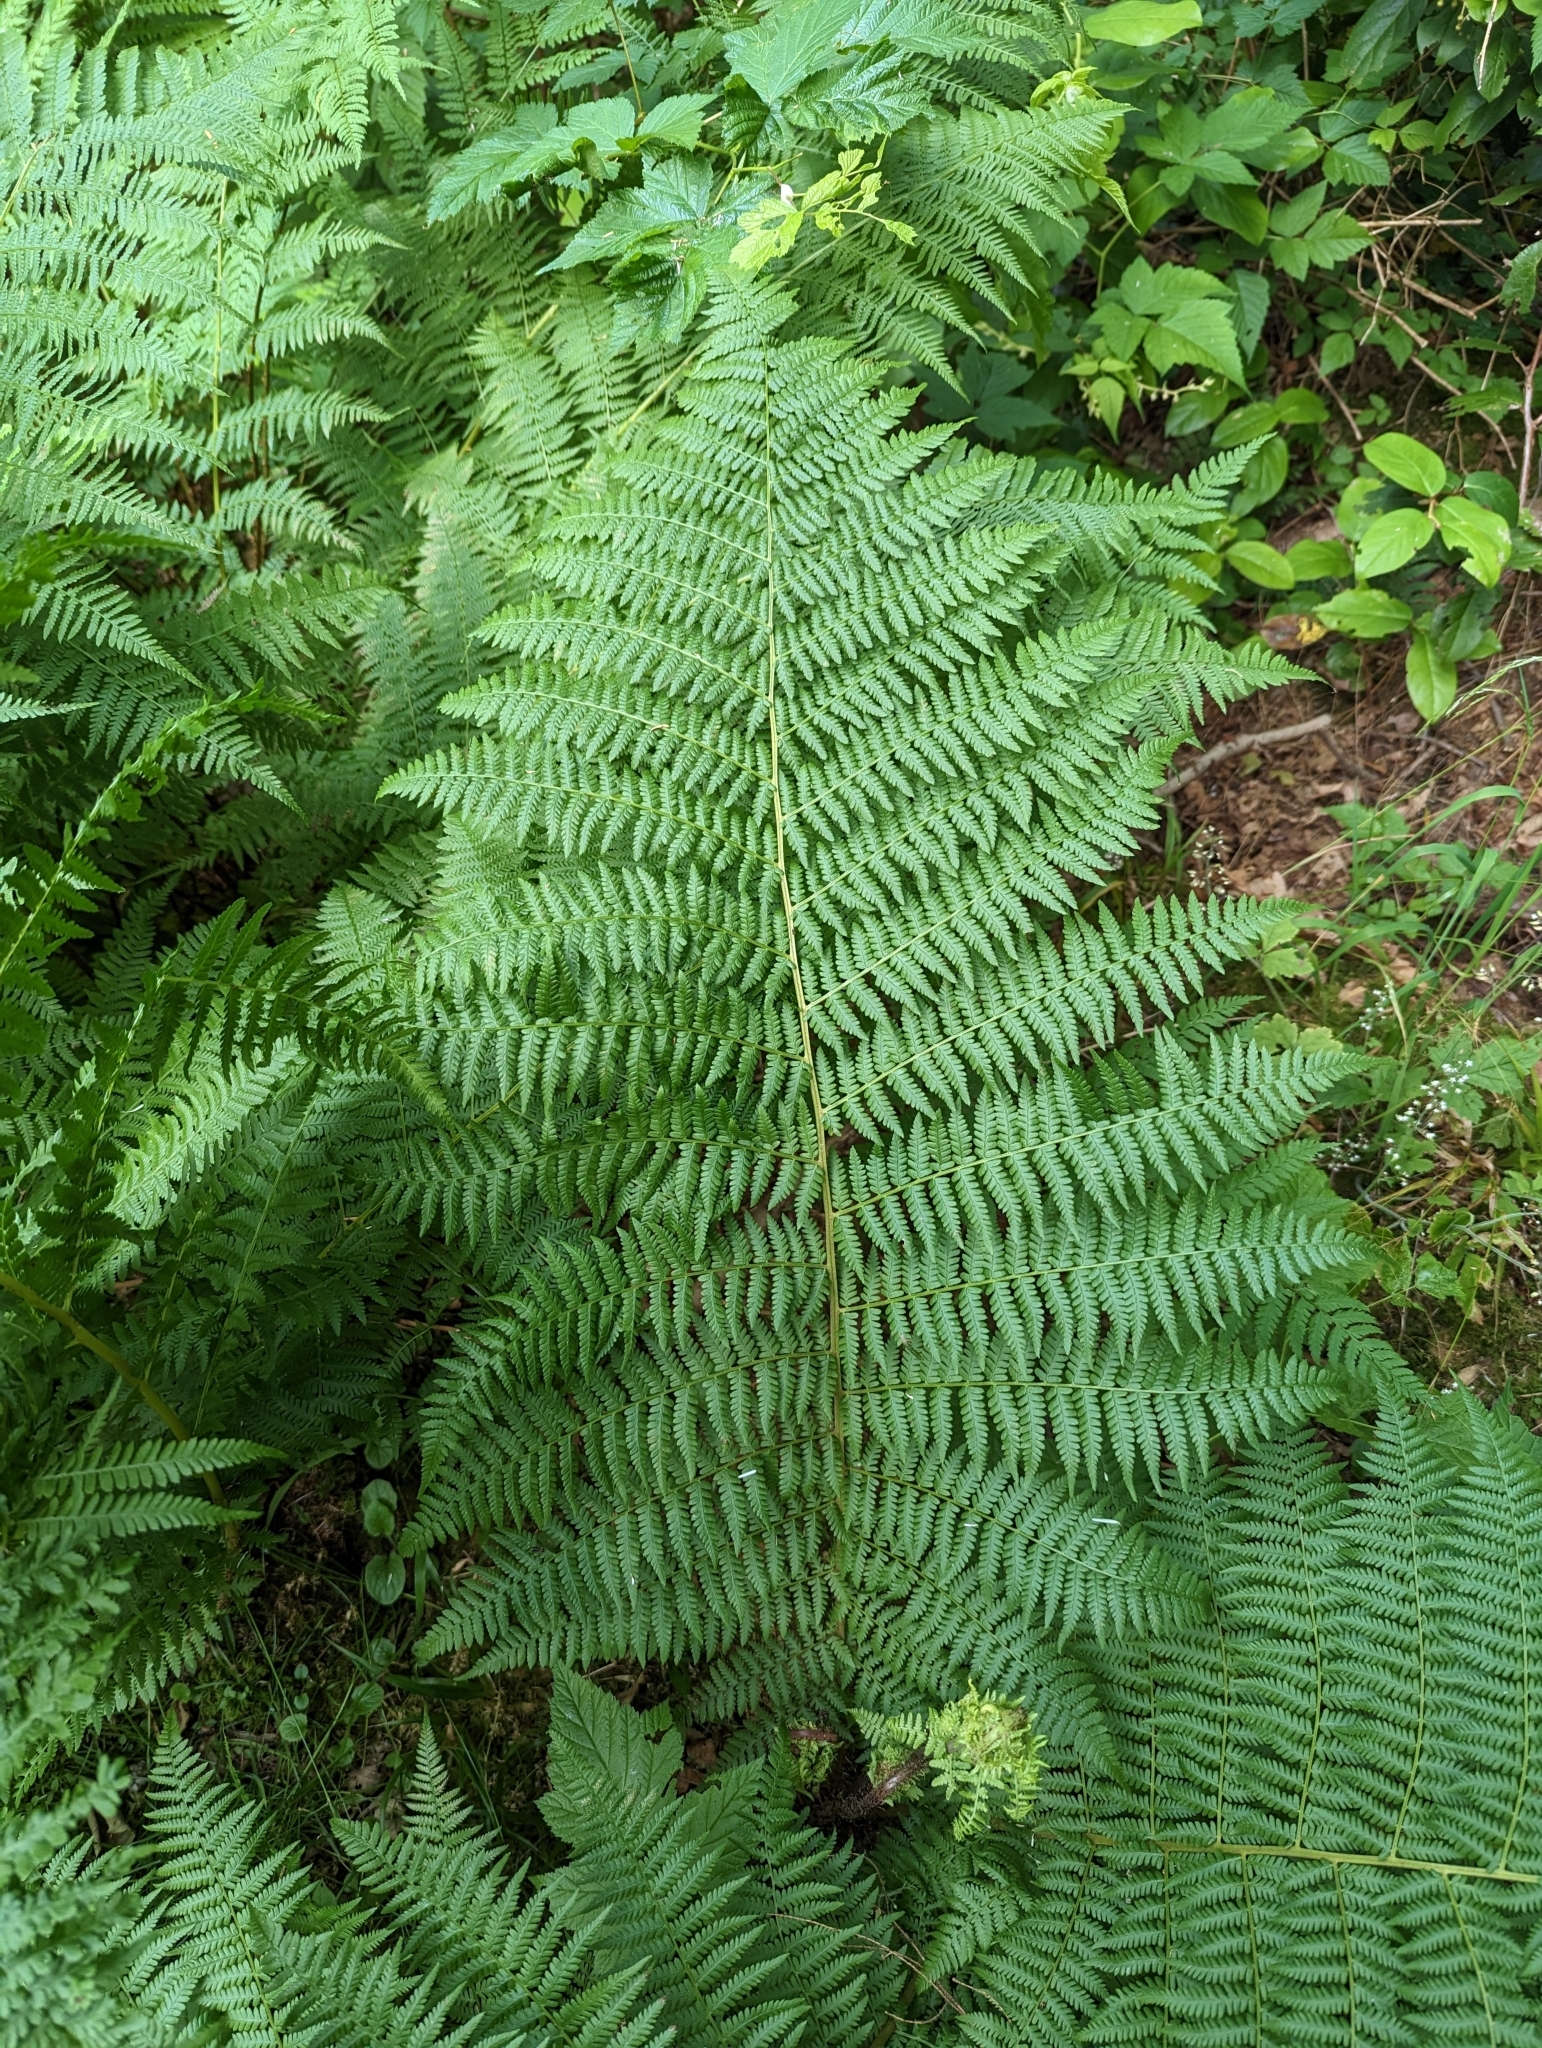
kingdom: Plantae
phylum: Tracheophyta
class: Polypodiopsida
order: Polypodiales
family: Athyriaceae
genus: Athyrium
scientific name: Athyrium filix-femina
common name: Lady fern
